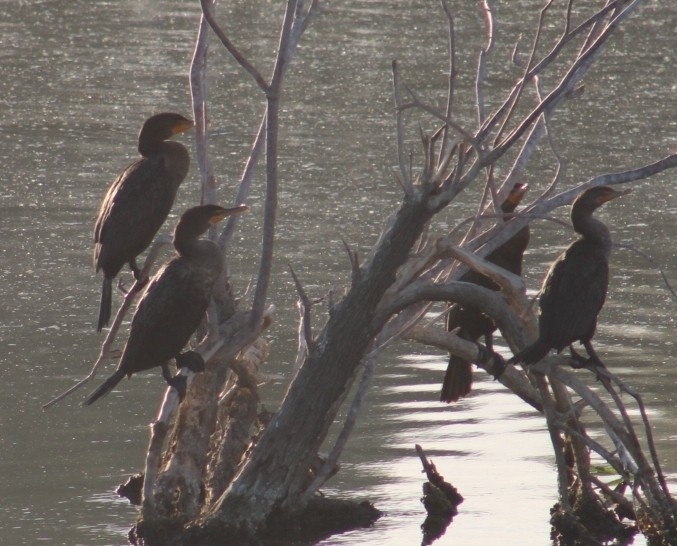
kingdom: Animalia
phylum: Chordata
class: Aves
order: Suliformes
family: Phalacrocoracidae
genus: Phalacrocorax
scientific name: Phalacrocorax auritus
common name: Double-crested cormorant
